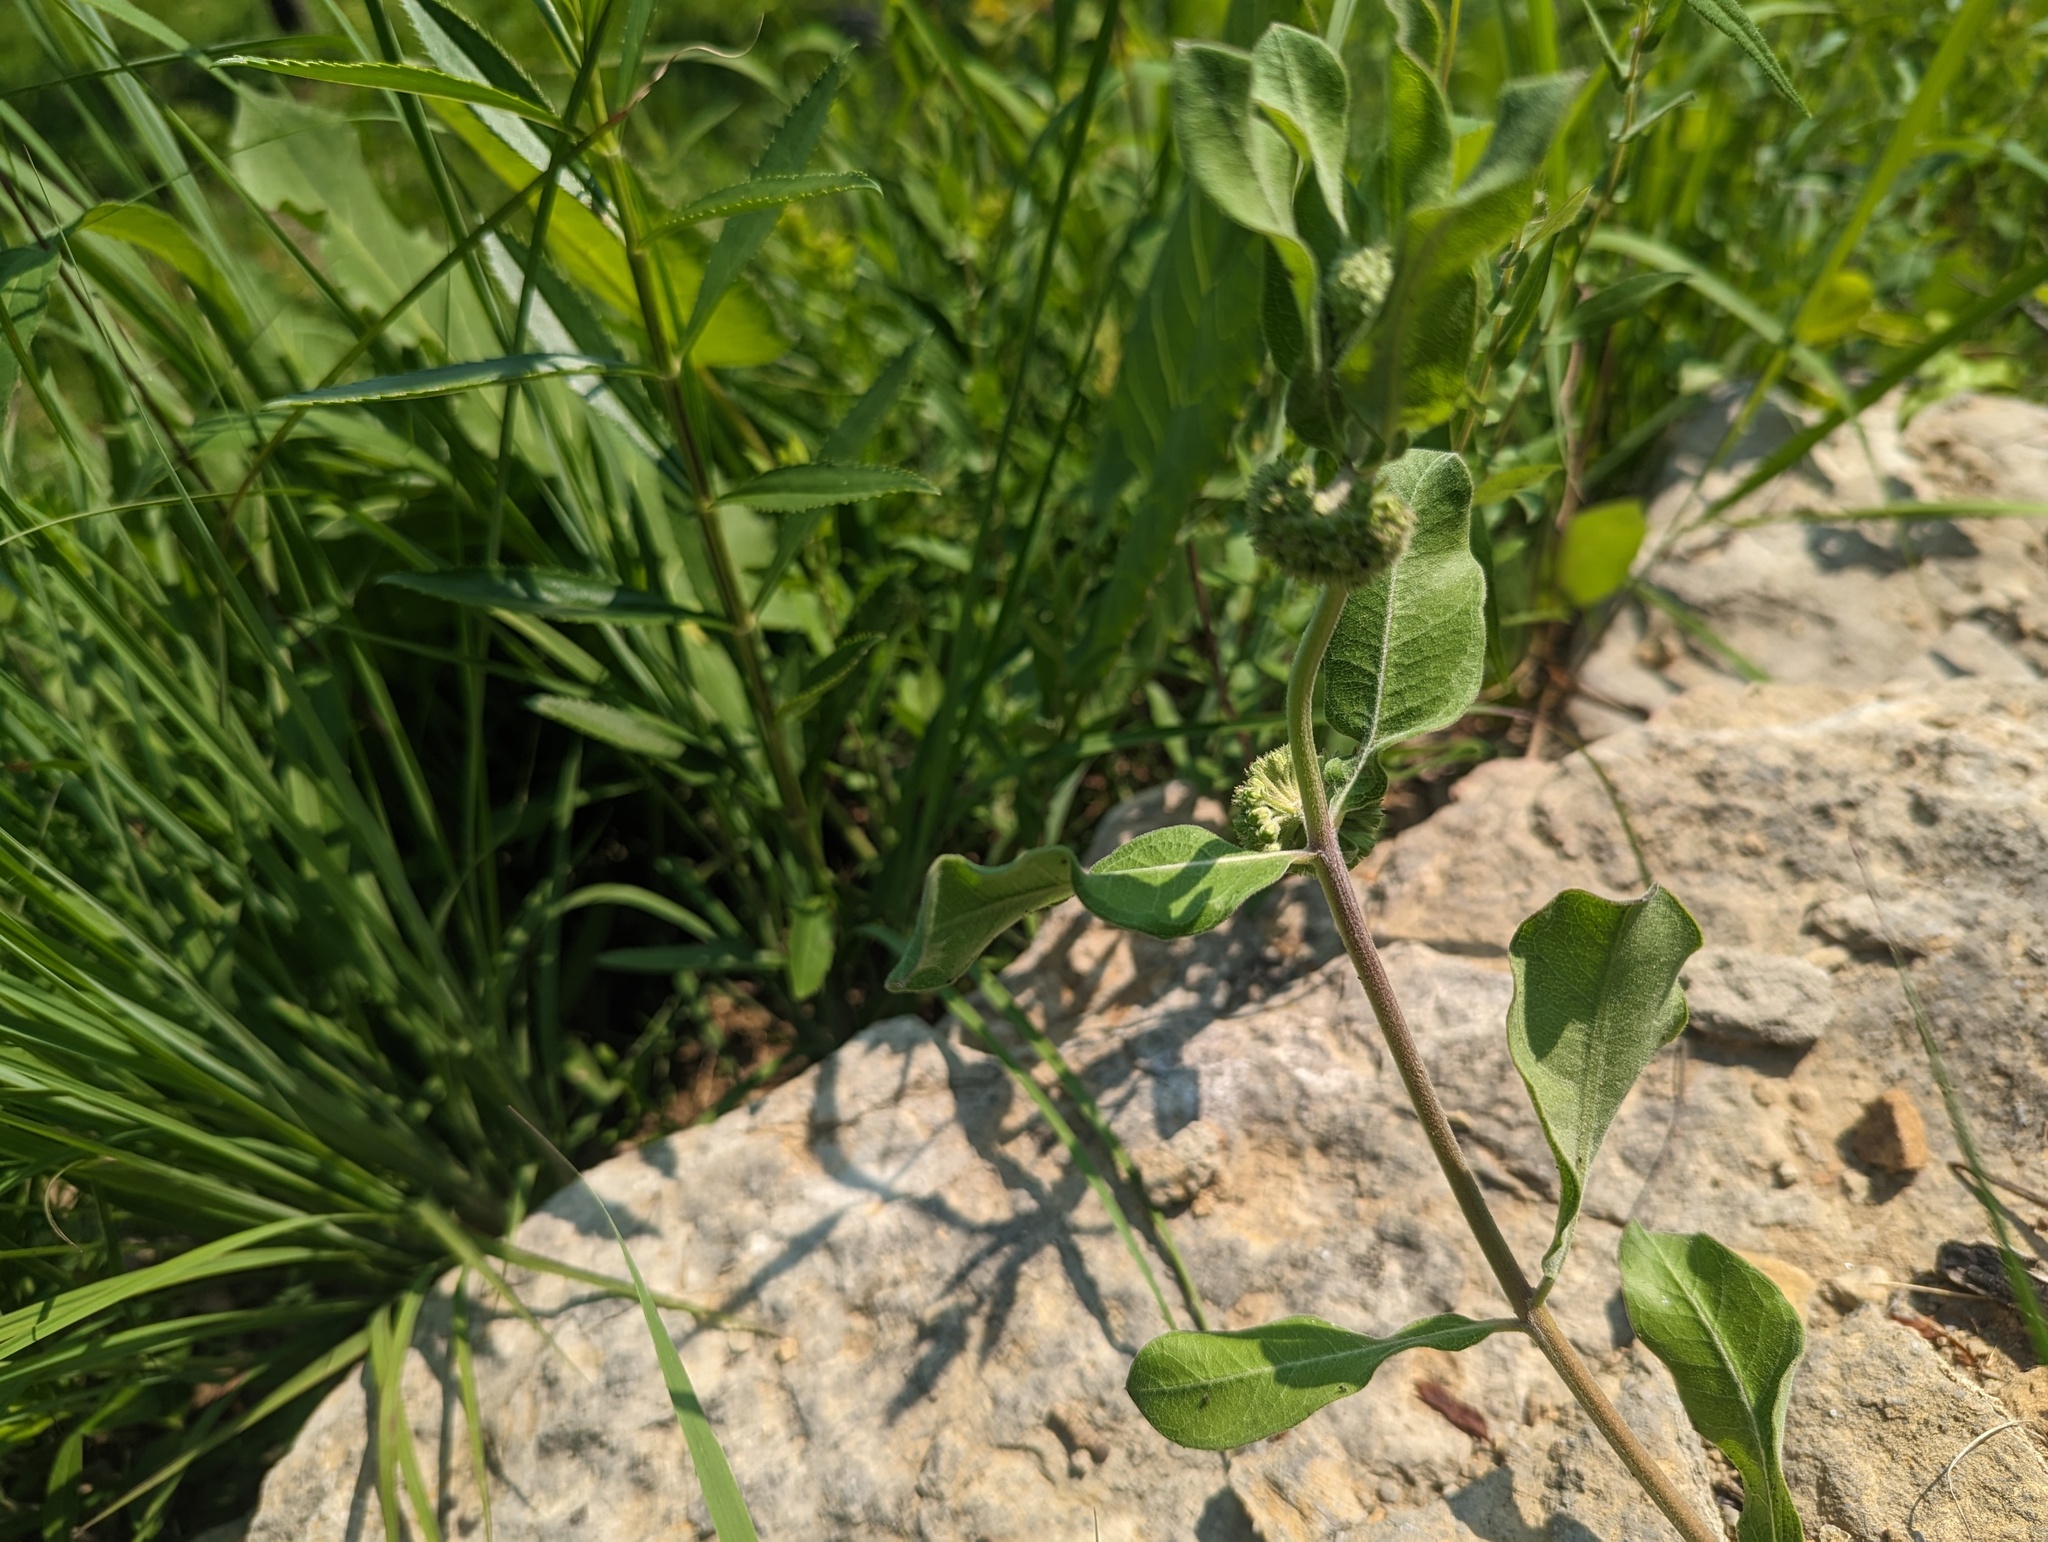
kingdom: Plantae
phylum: Tracheophyta
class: Magnoliopsida
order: Gentianales
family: Apocynaceae
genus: Asclepias
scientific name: Asclepias viridiflora
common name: Green comet milkweed
